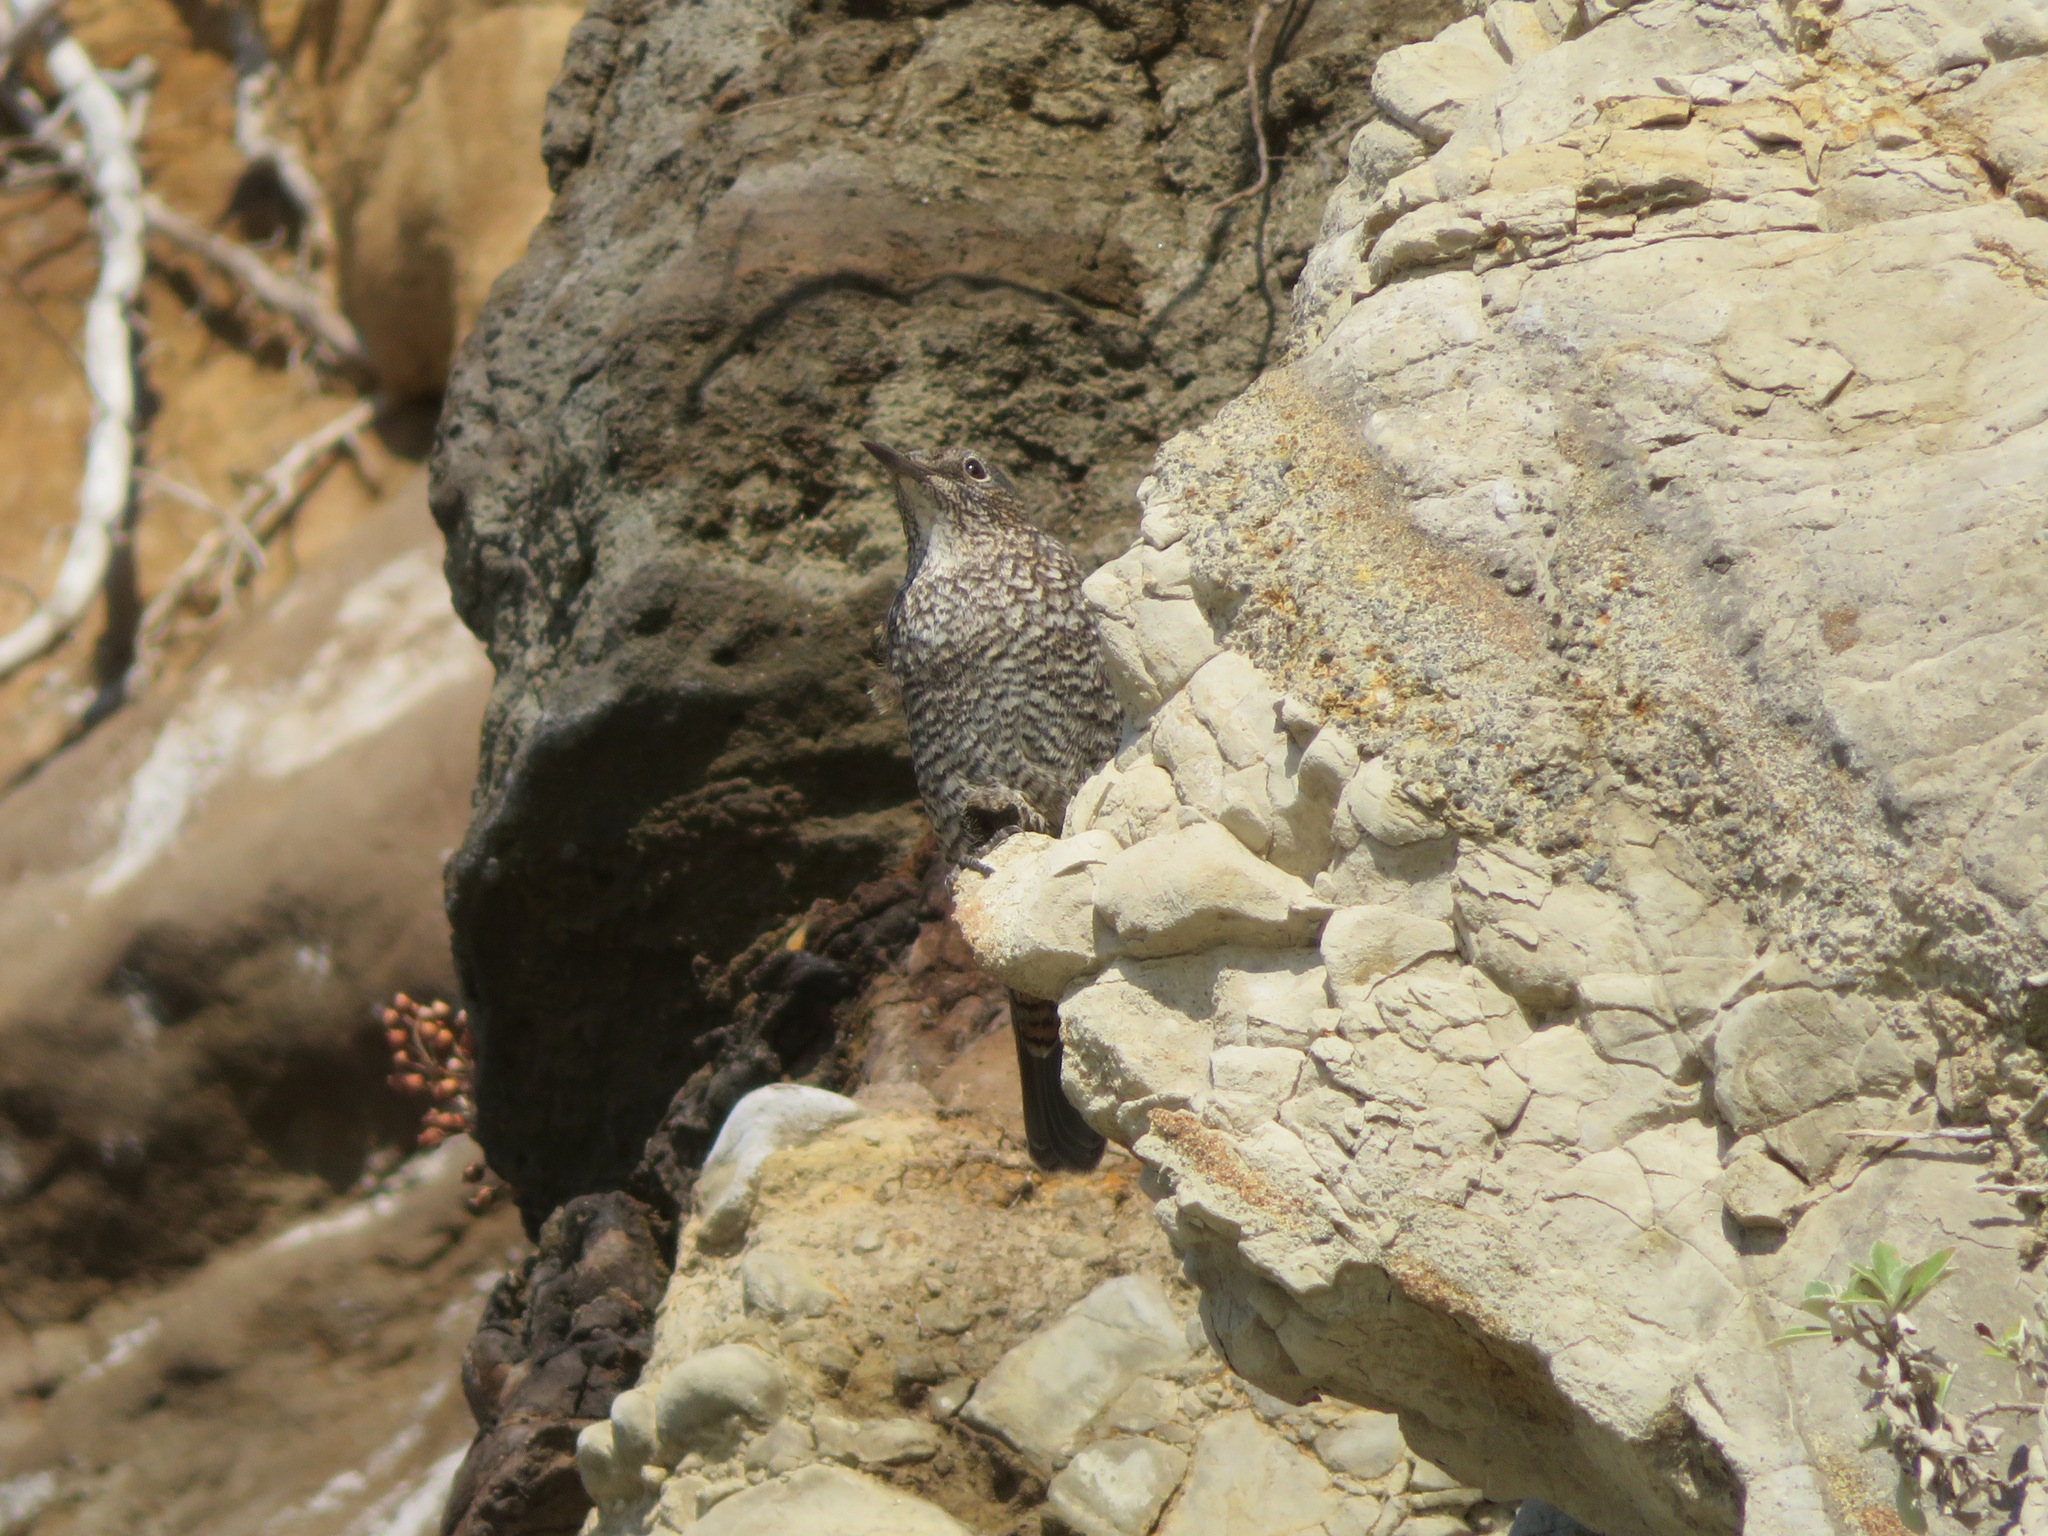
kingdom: Animalia
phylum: Chordata
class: Aves
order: Passeriformes
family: Muscicapidae
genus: Monticola
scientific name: Monticola solitarius
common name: Blue rock thrush
